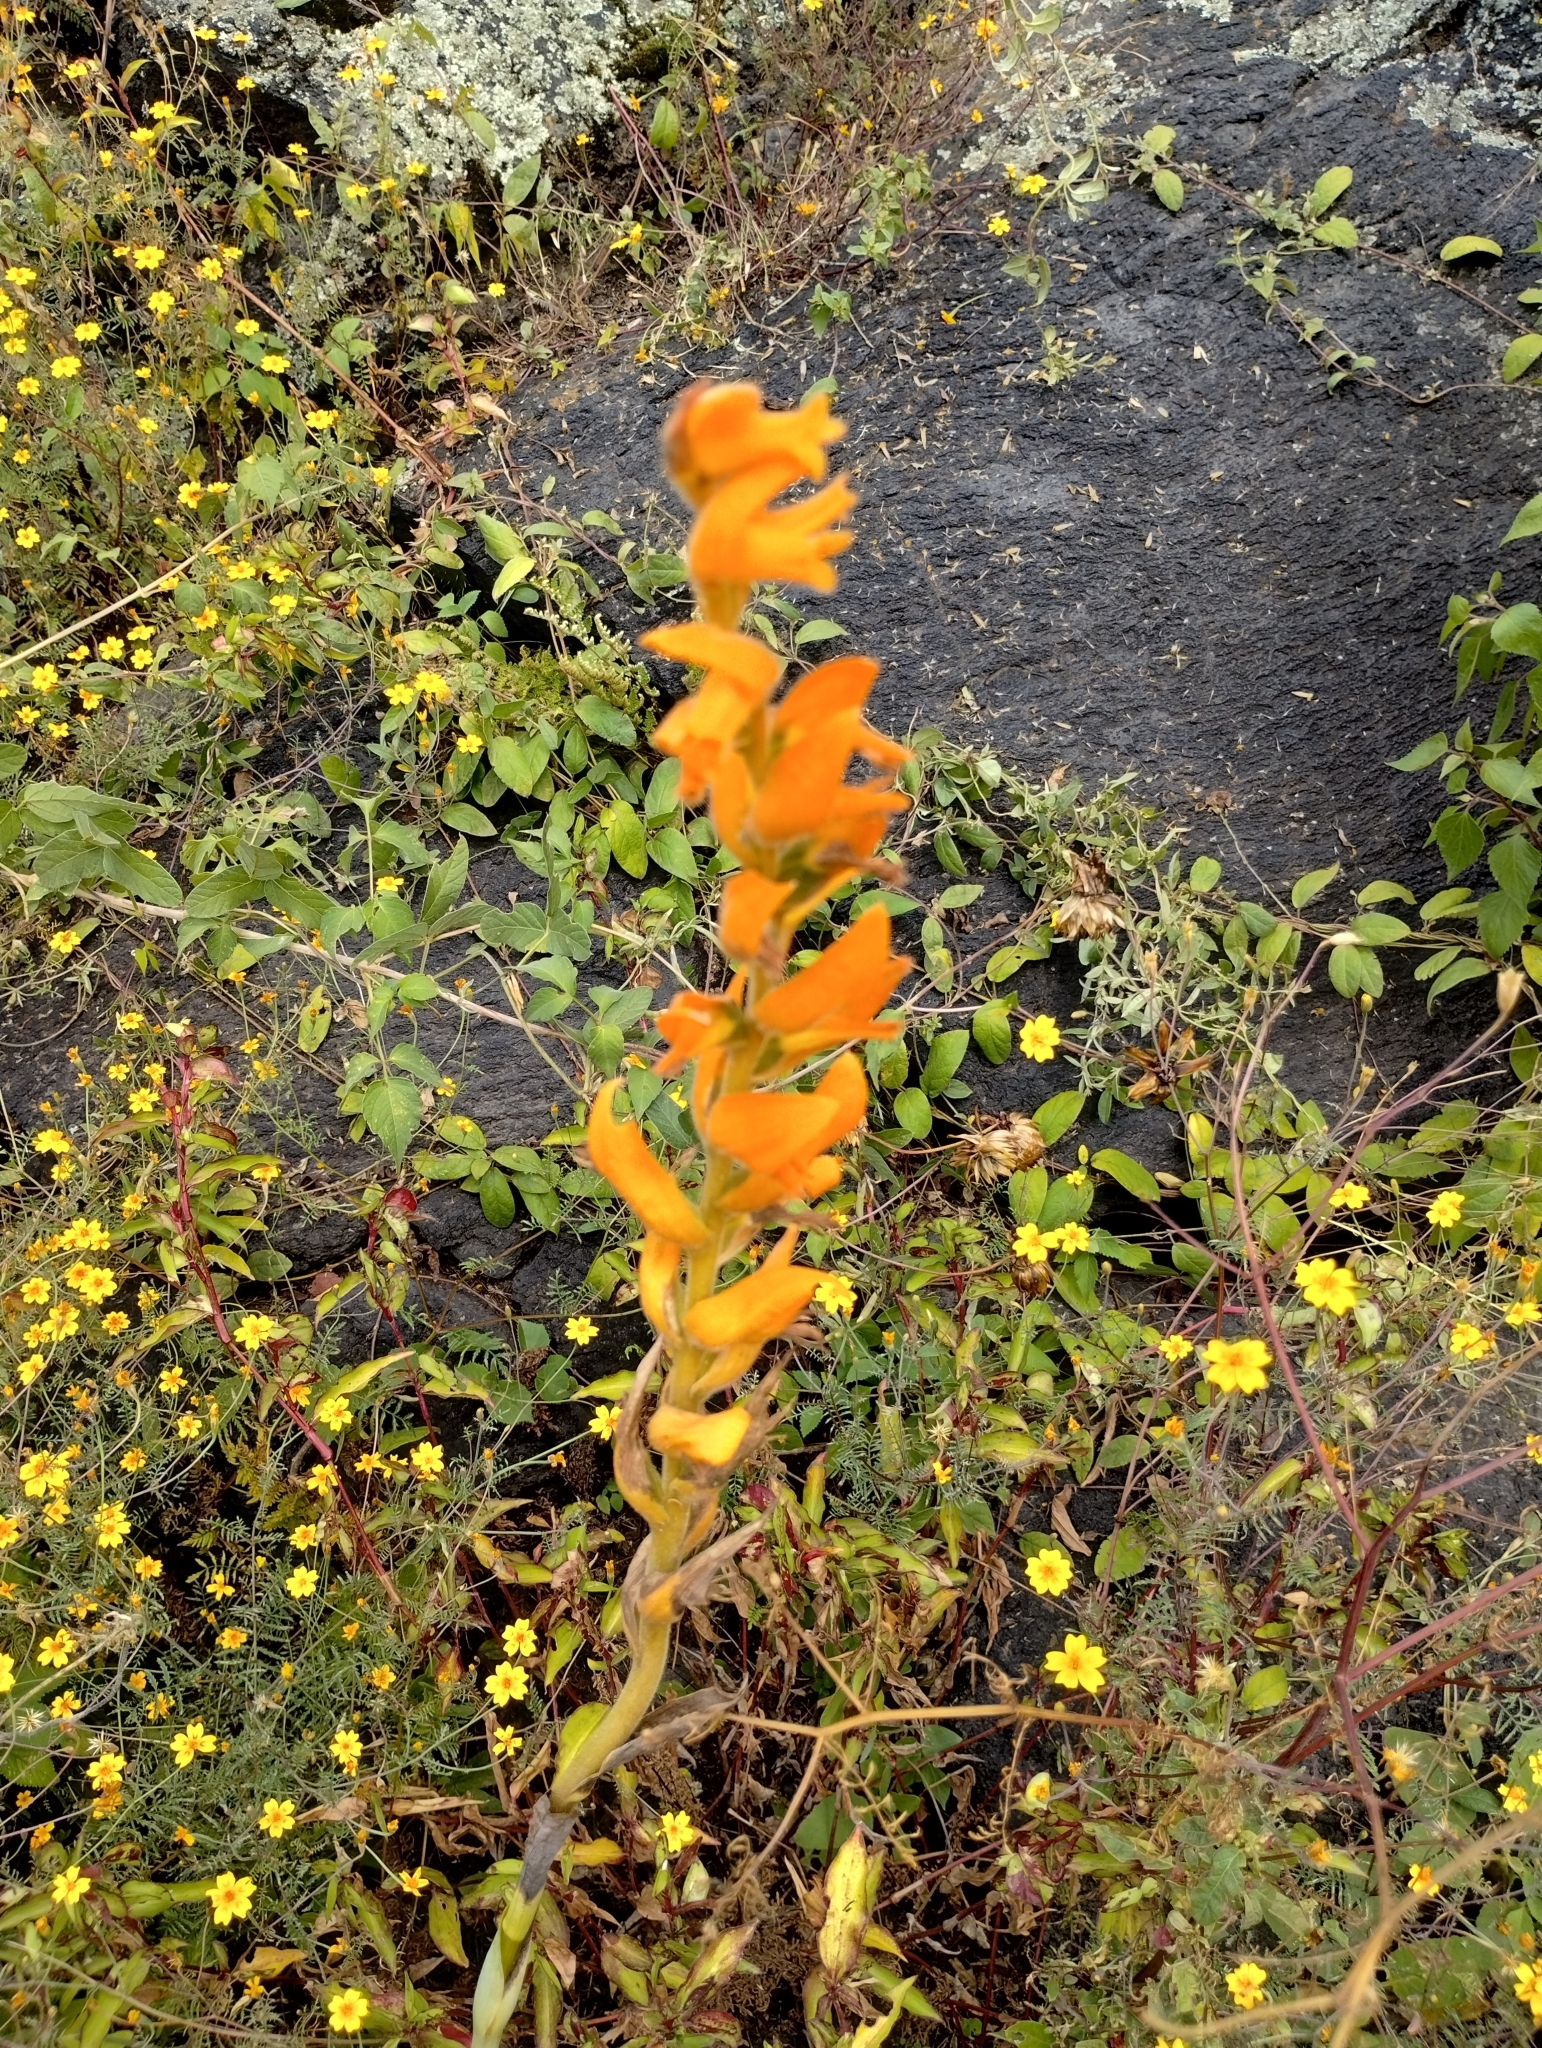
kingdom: Plantae
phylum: Tracheophyta
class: Liliopsida
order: Asparagales
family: Orchidaceae
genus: Dichromanthus
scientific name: Dichromanthus aurantiacus
